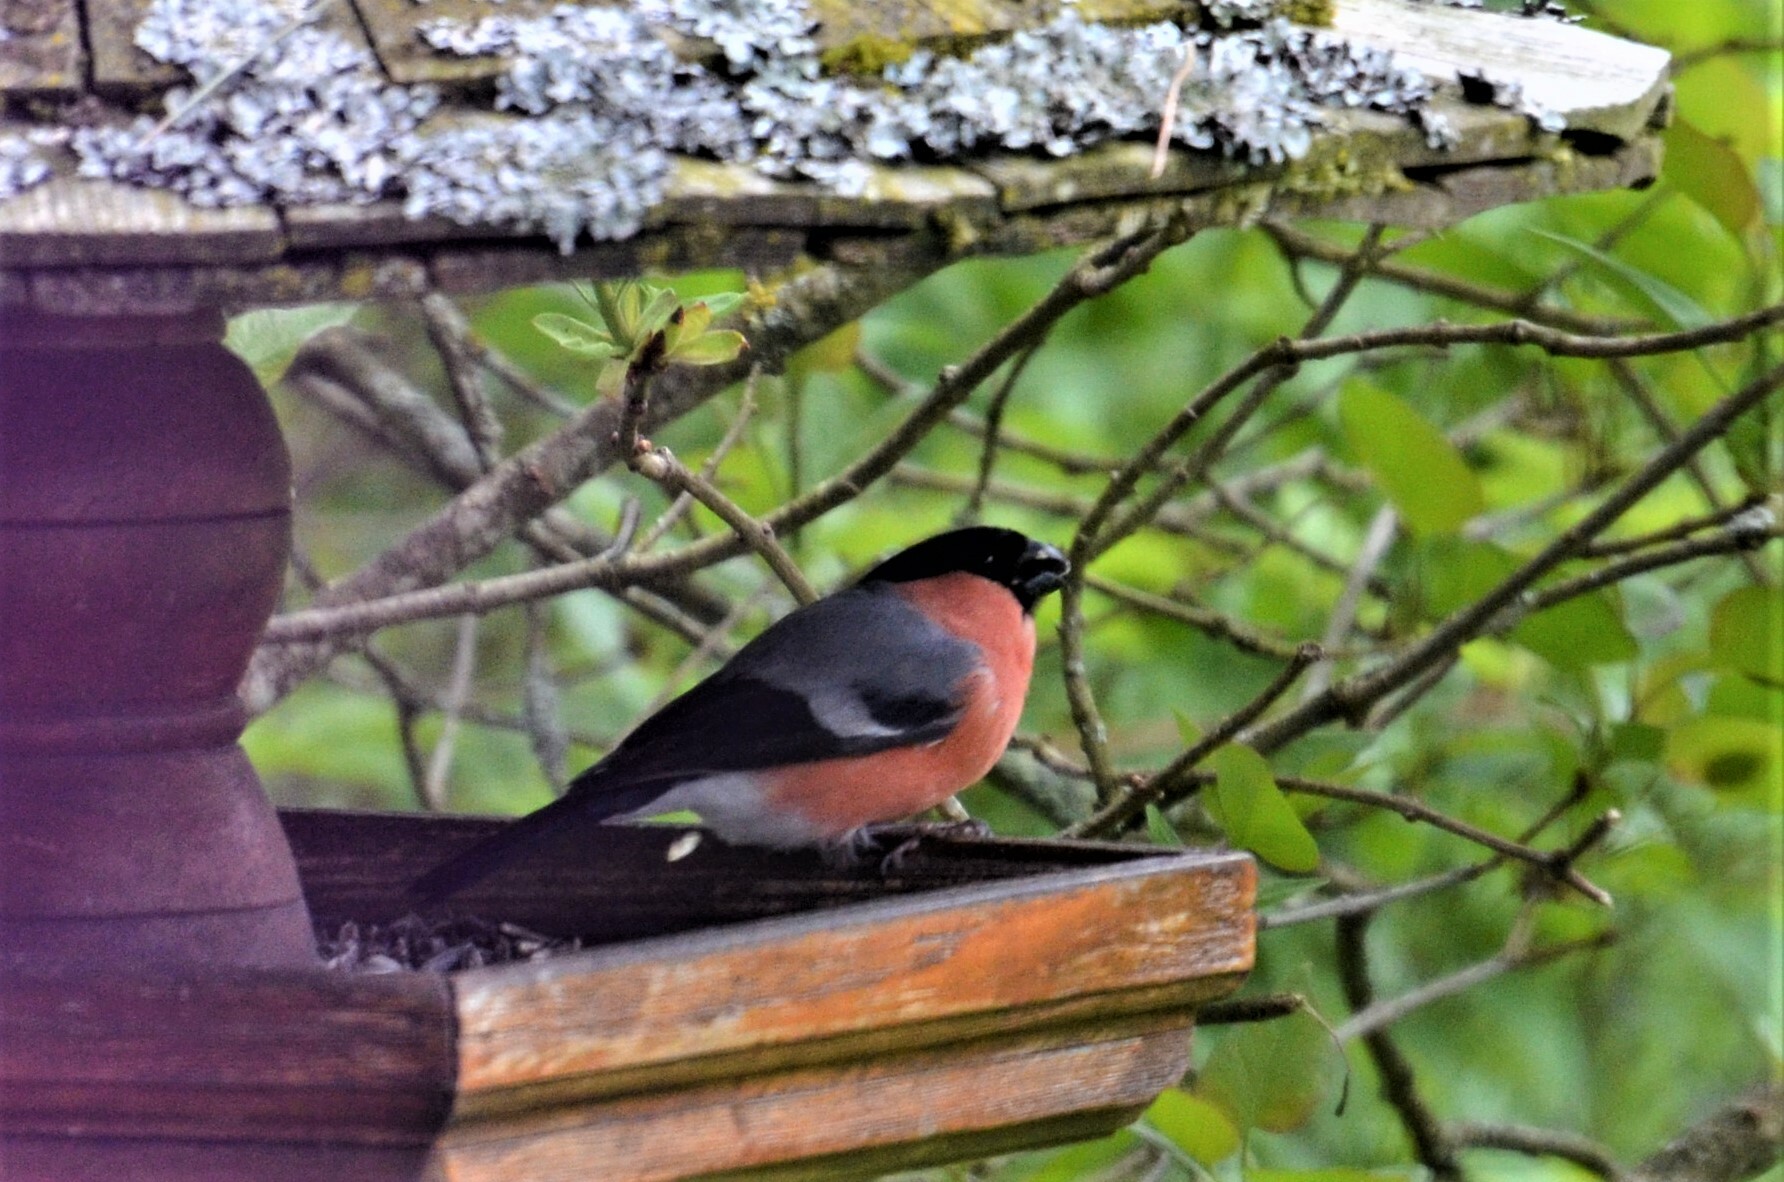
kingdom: Animalia
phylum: Chordata
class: Aves
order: Passeriformes
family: Fringillidae
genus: Pyrrhula
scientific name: Pyrrhula pyrrhula
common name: Eurasian bullfinch
